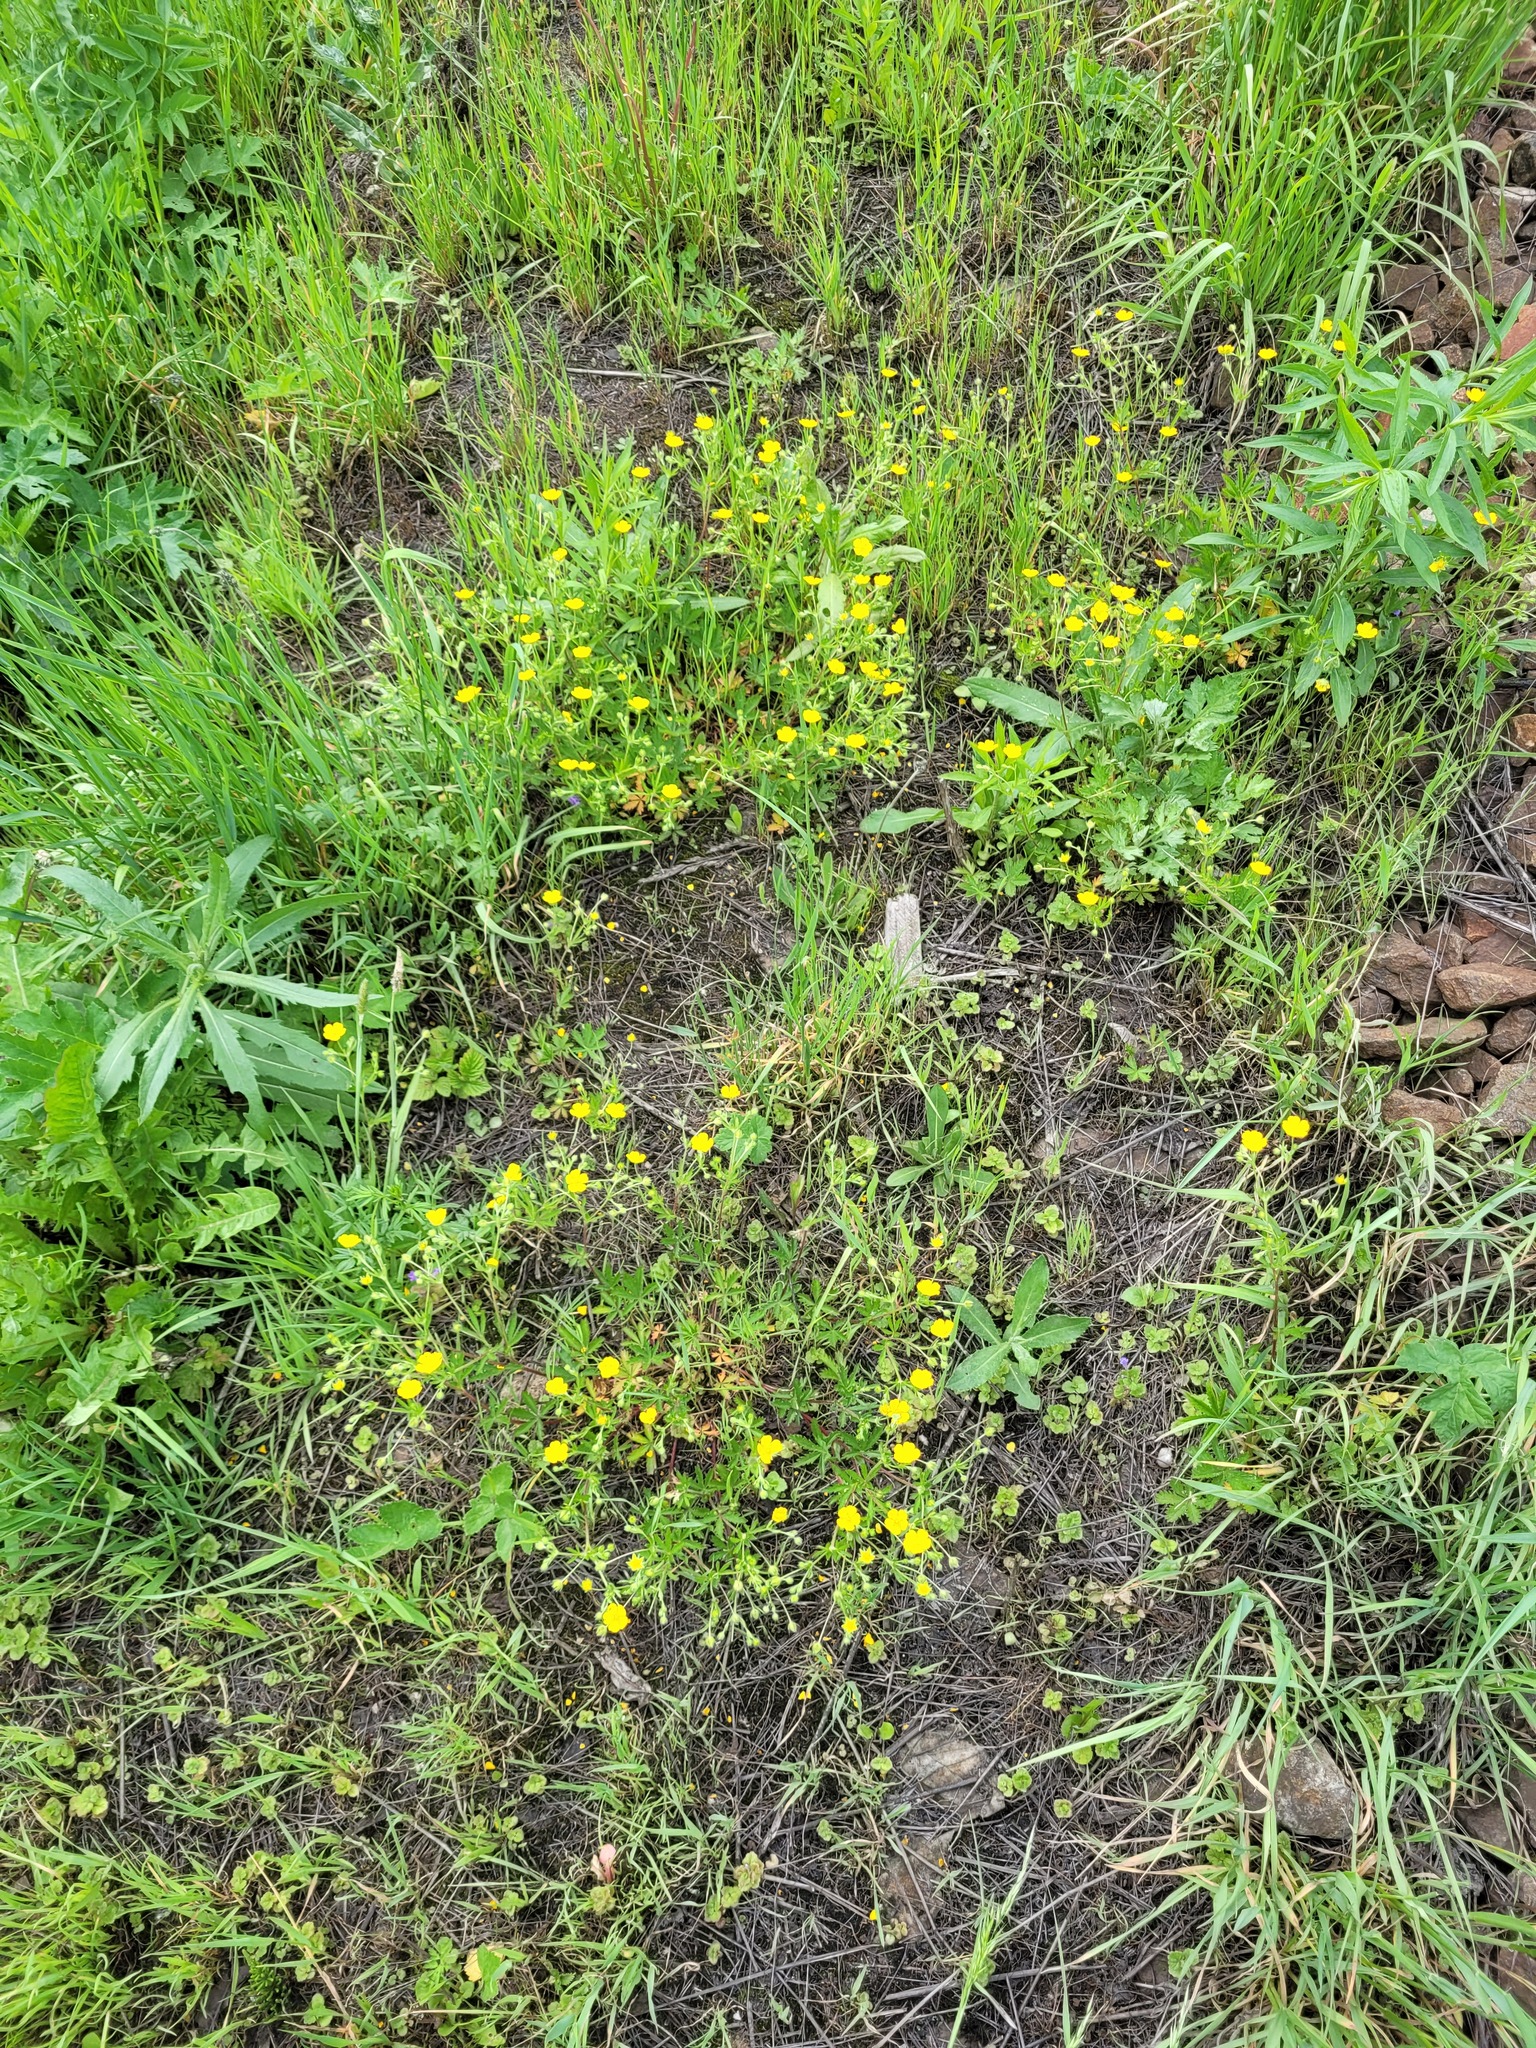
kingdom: Plantae
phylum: Tracheophyta
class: Magnoliopsida
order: Rosales
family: Rosaceae
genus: Potentilla
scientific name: Potentilla thuringiaca
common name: European cinquefoil
